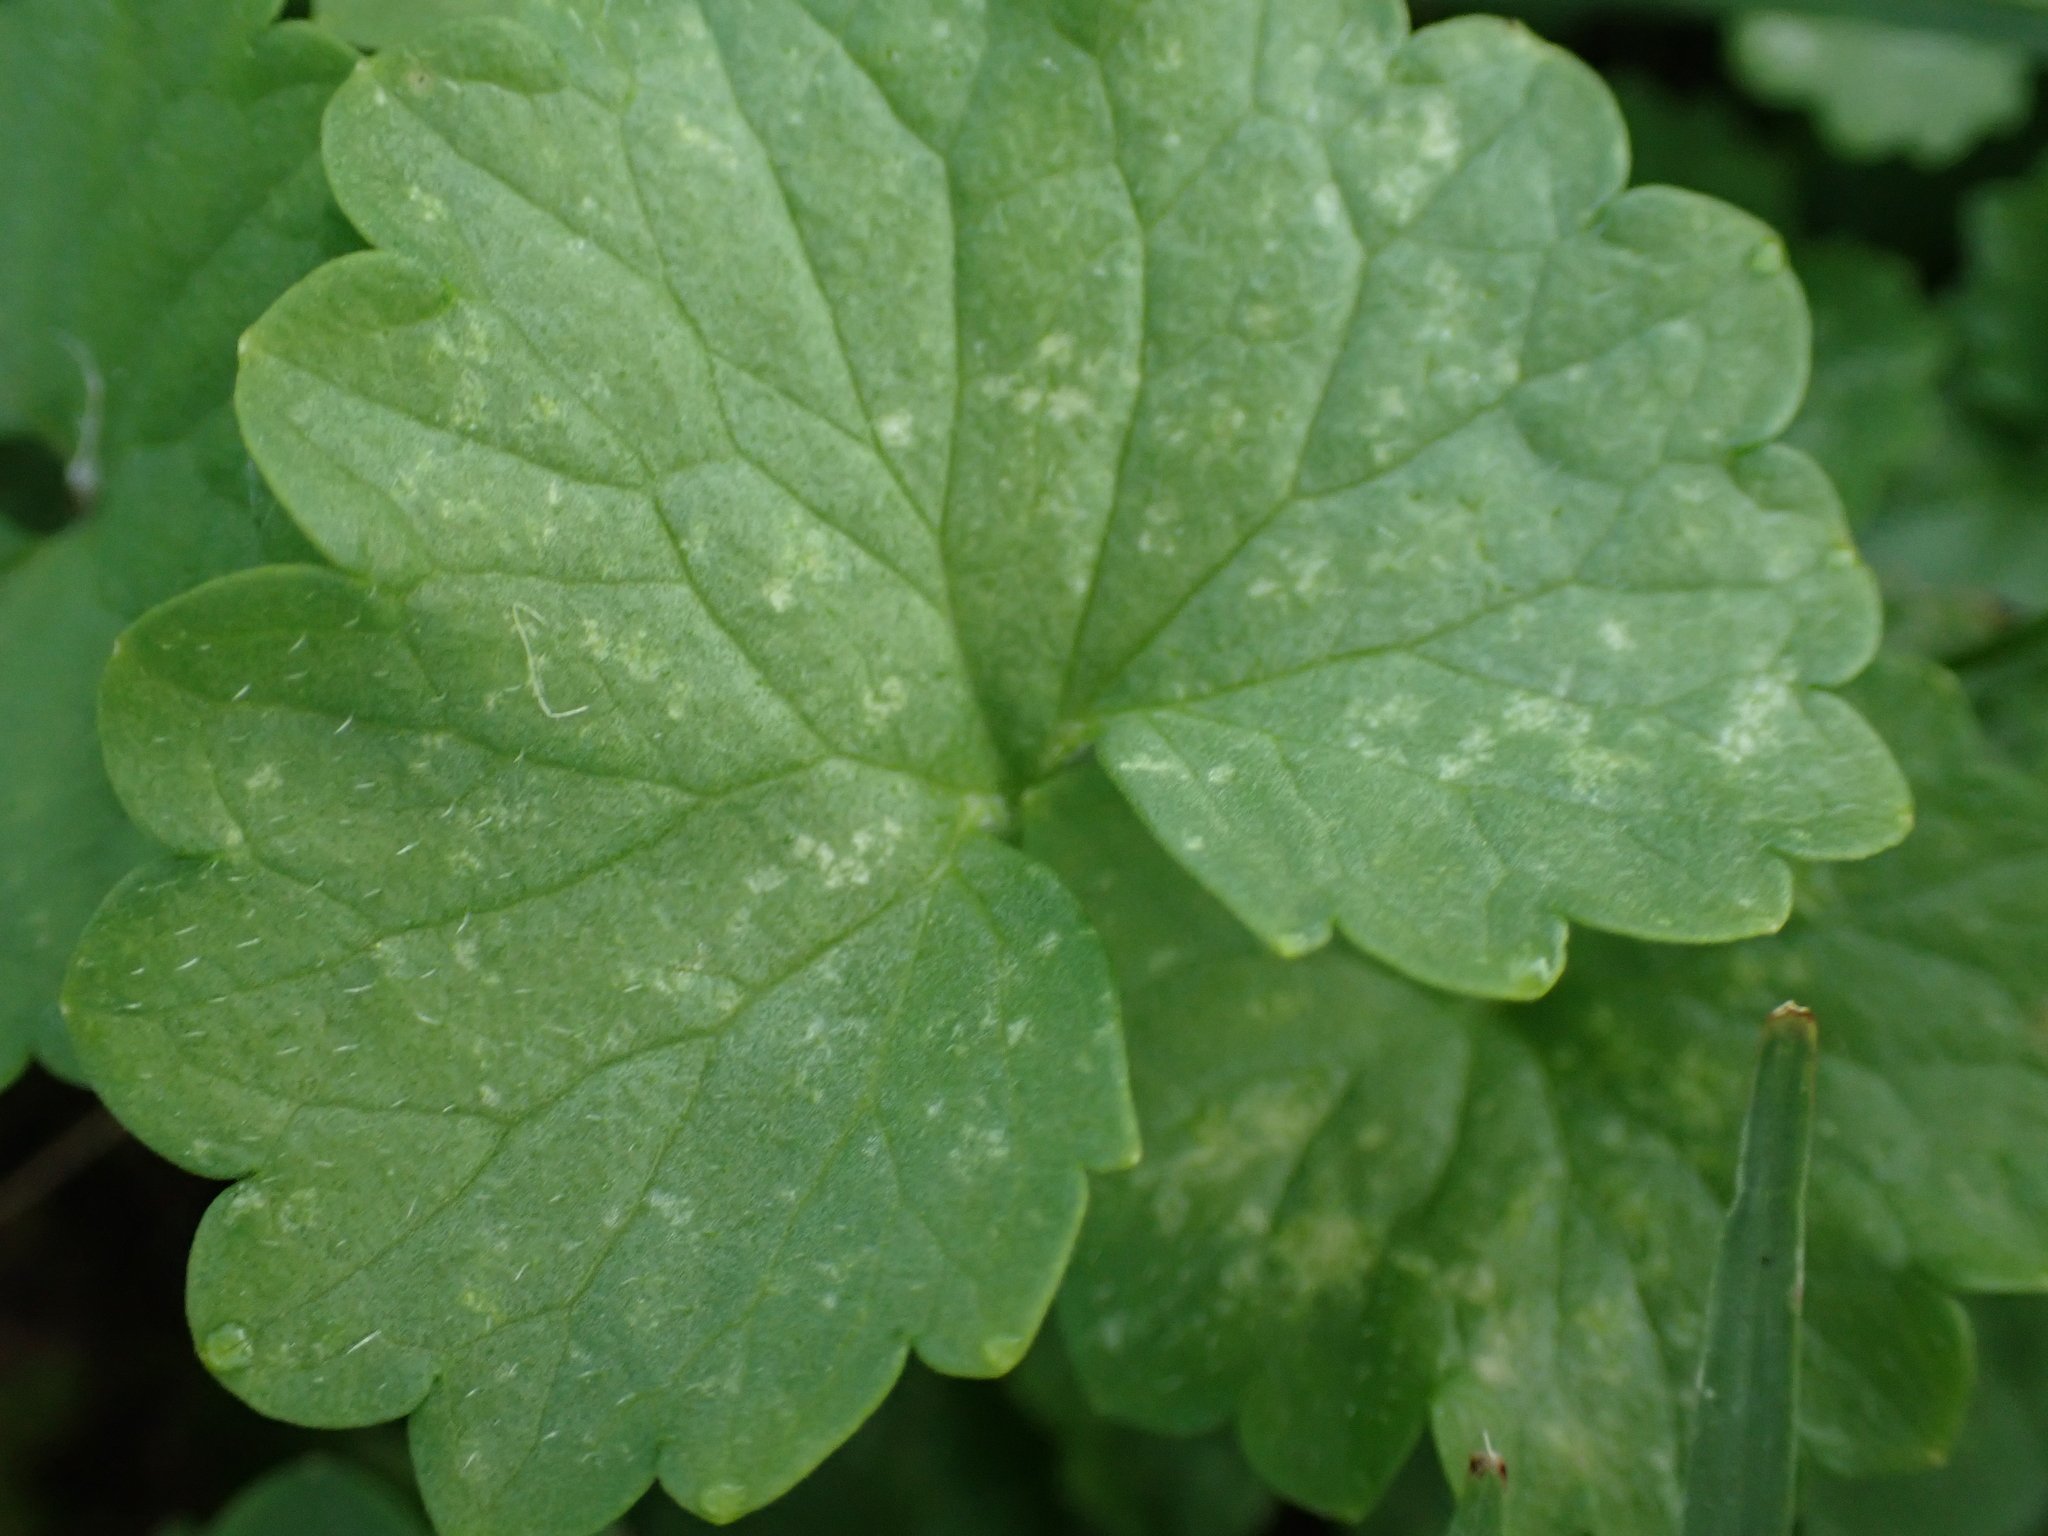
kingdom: Plantae
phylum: Tracheophyta
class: Magnoliopsida
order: Lamiales
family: Lamiaceae
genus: Glechoma
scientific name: Glechoma hederacea
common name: Ground ivy
